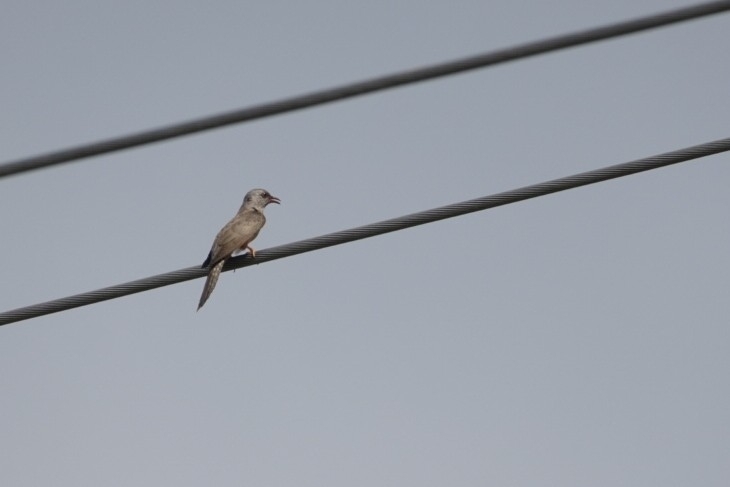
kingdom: Animalia
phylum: Chordata
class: Aves
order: Cuculiformes
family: Cuculidae
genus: Cacomantis
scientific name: Cacomantis merulinus
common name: Plaintive cuckoo
